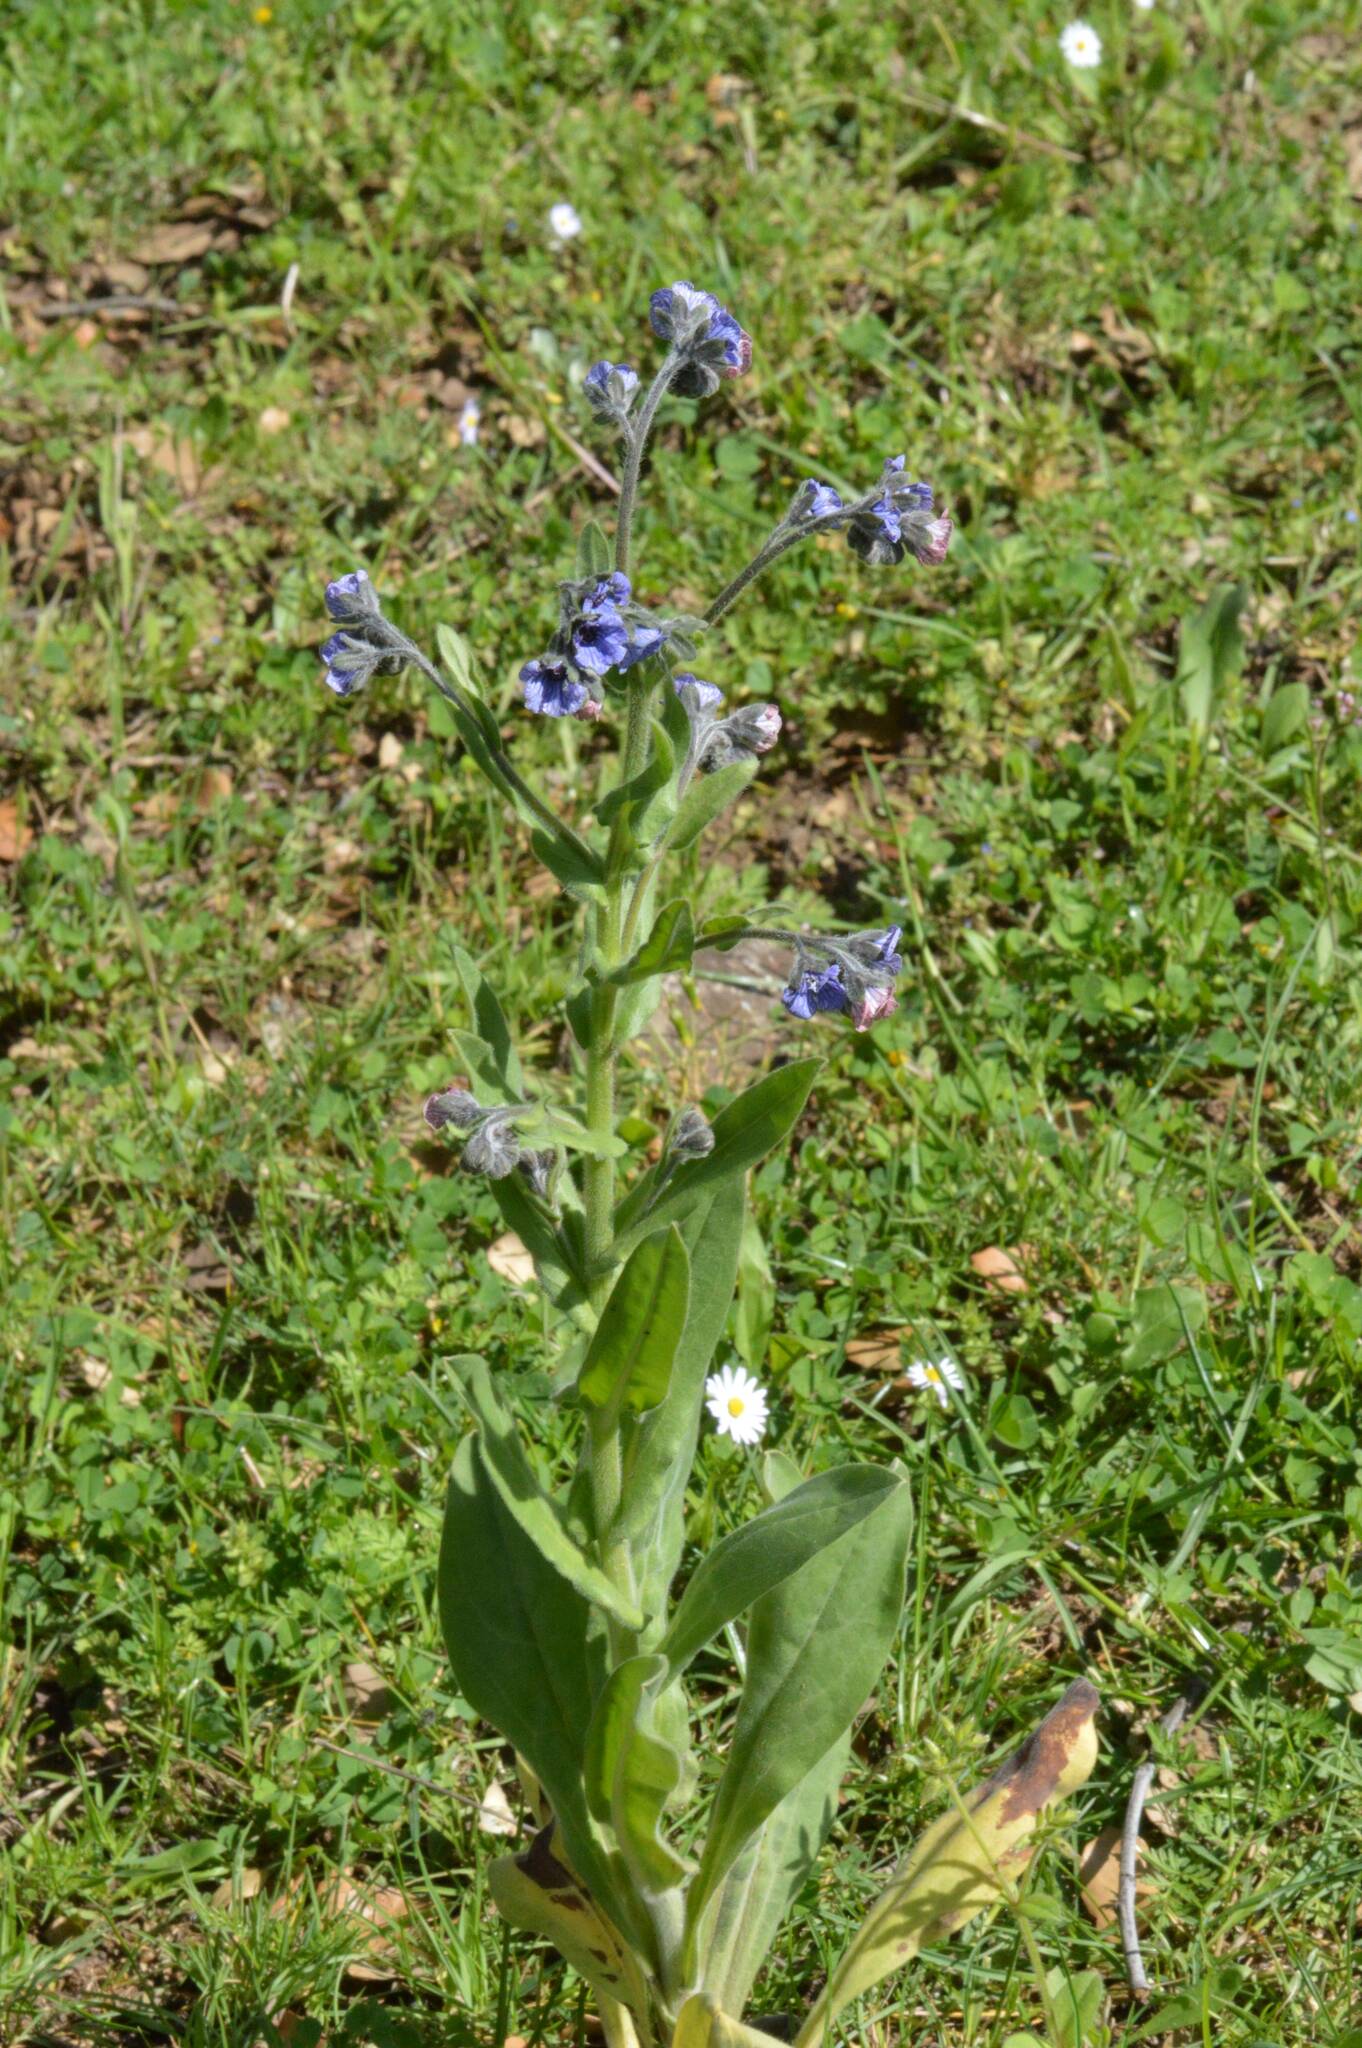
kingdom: Plantae
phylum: Tracheophyta
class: Magnoliopsida
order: Boraginales
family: Boraginaceae
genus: Cynoglossum
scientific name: Cynoglossum creticum
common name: Blue hound's tongue
